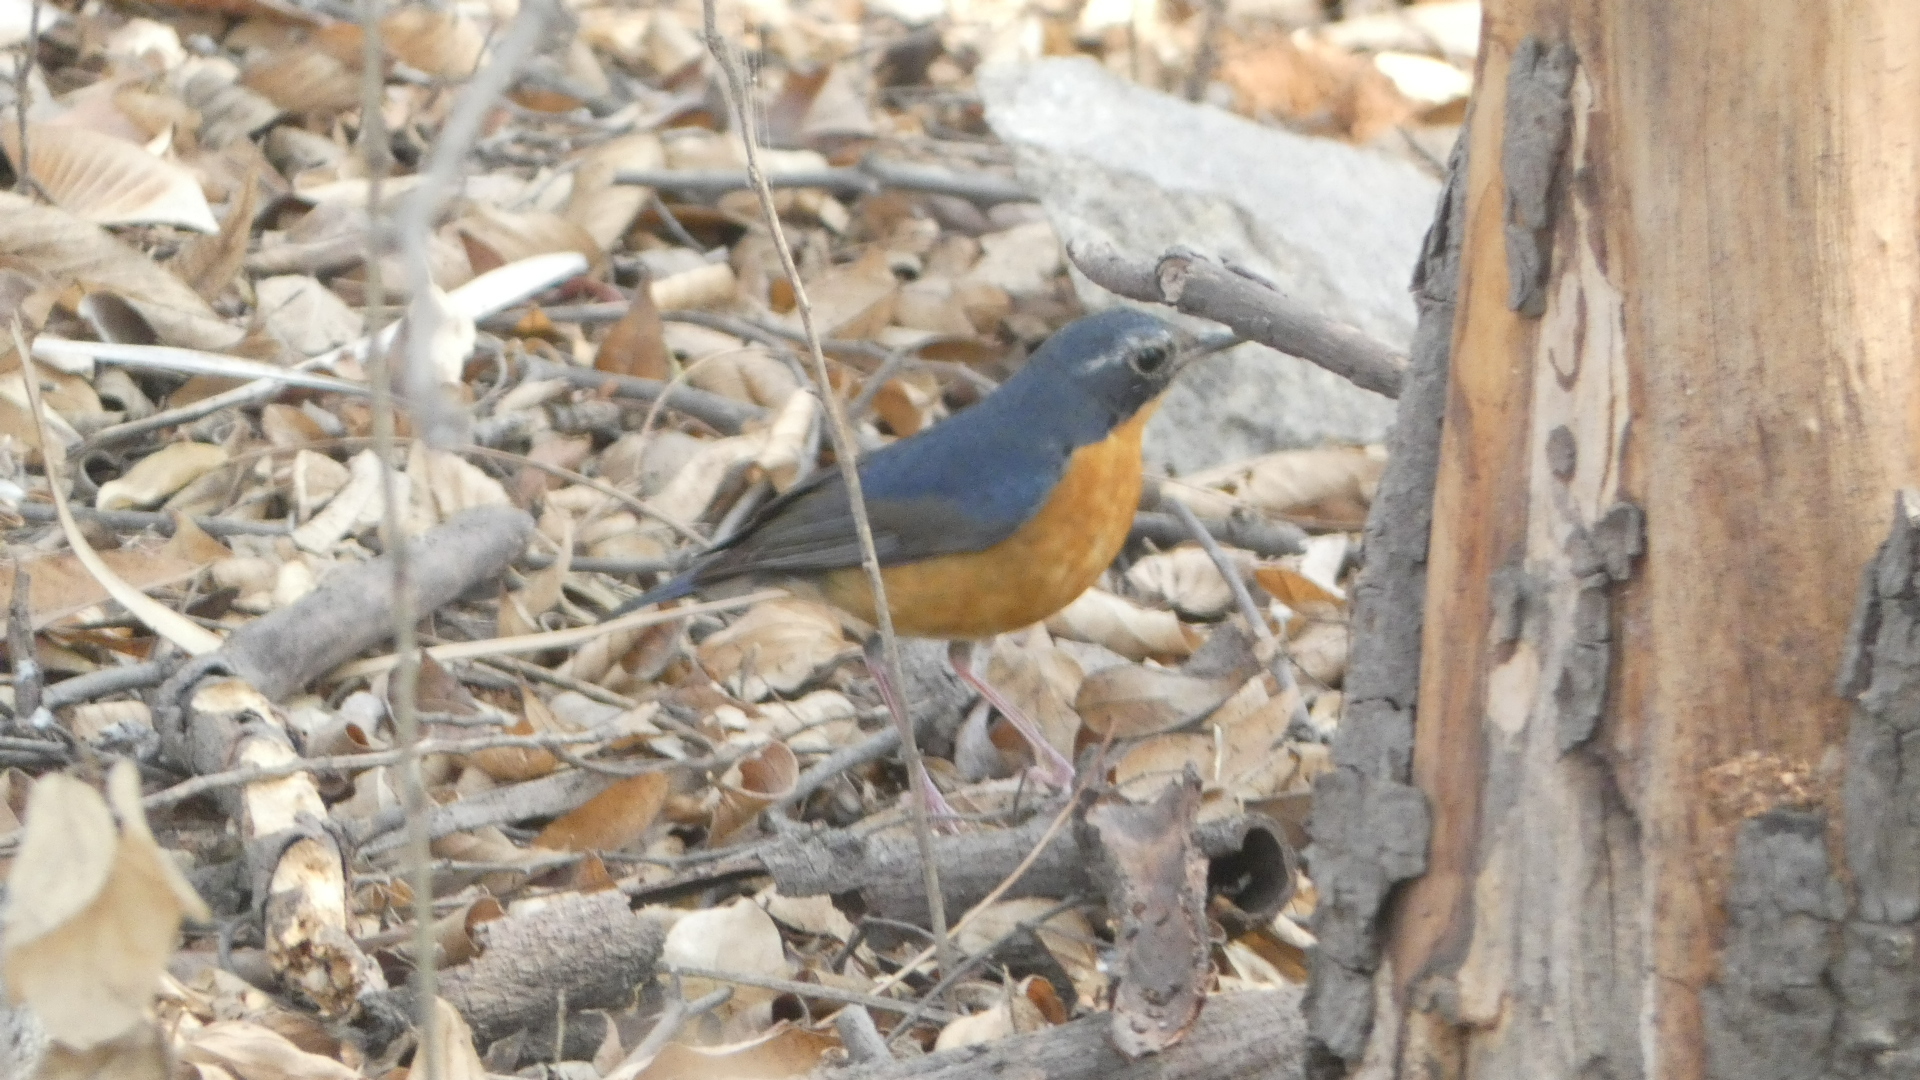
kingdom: Animalia
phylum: Chordata
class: Aves
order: Passeriformes
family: Muscicapidae
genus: Luscinia
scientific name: Luscinia brunnea
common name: Indian blue robin
